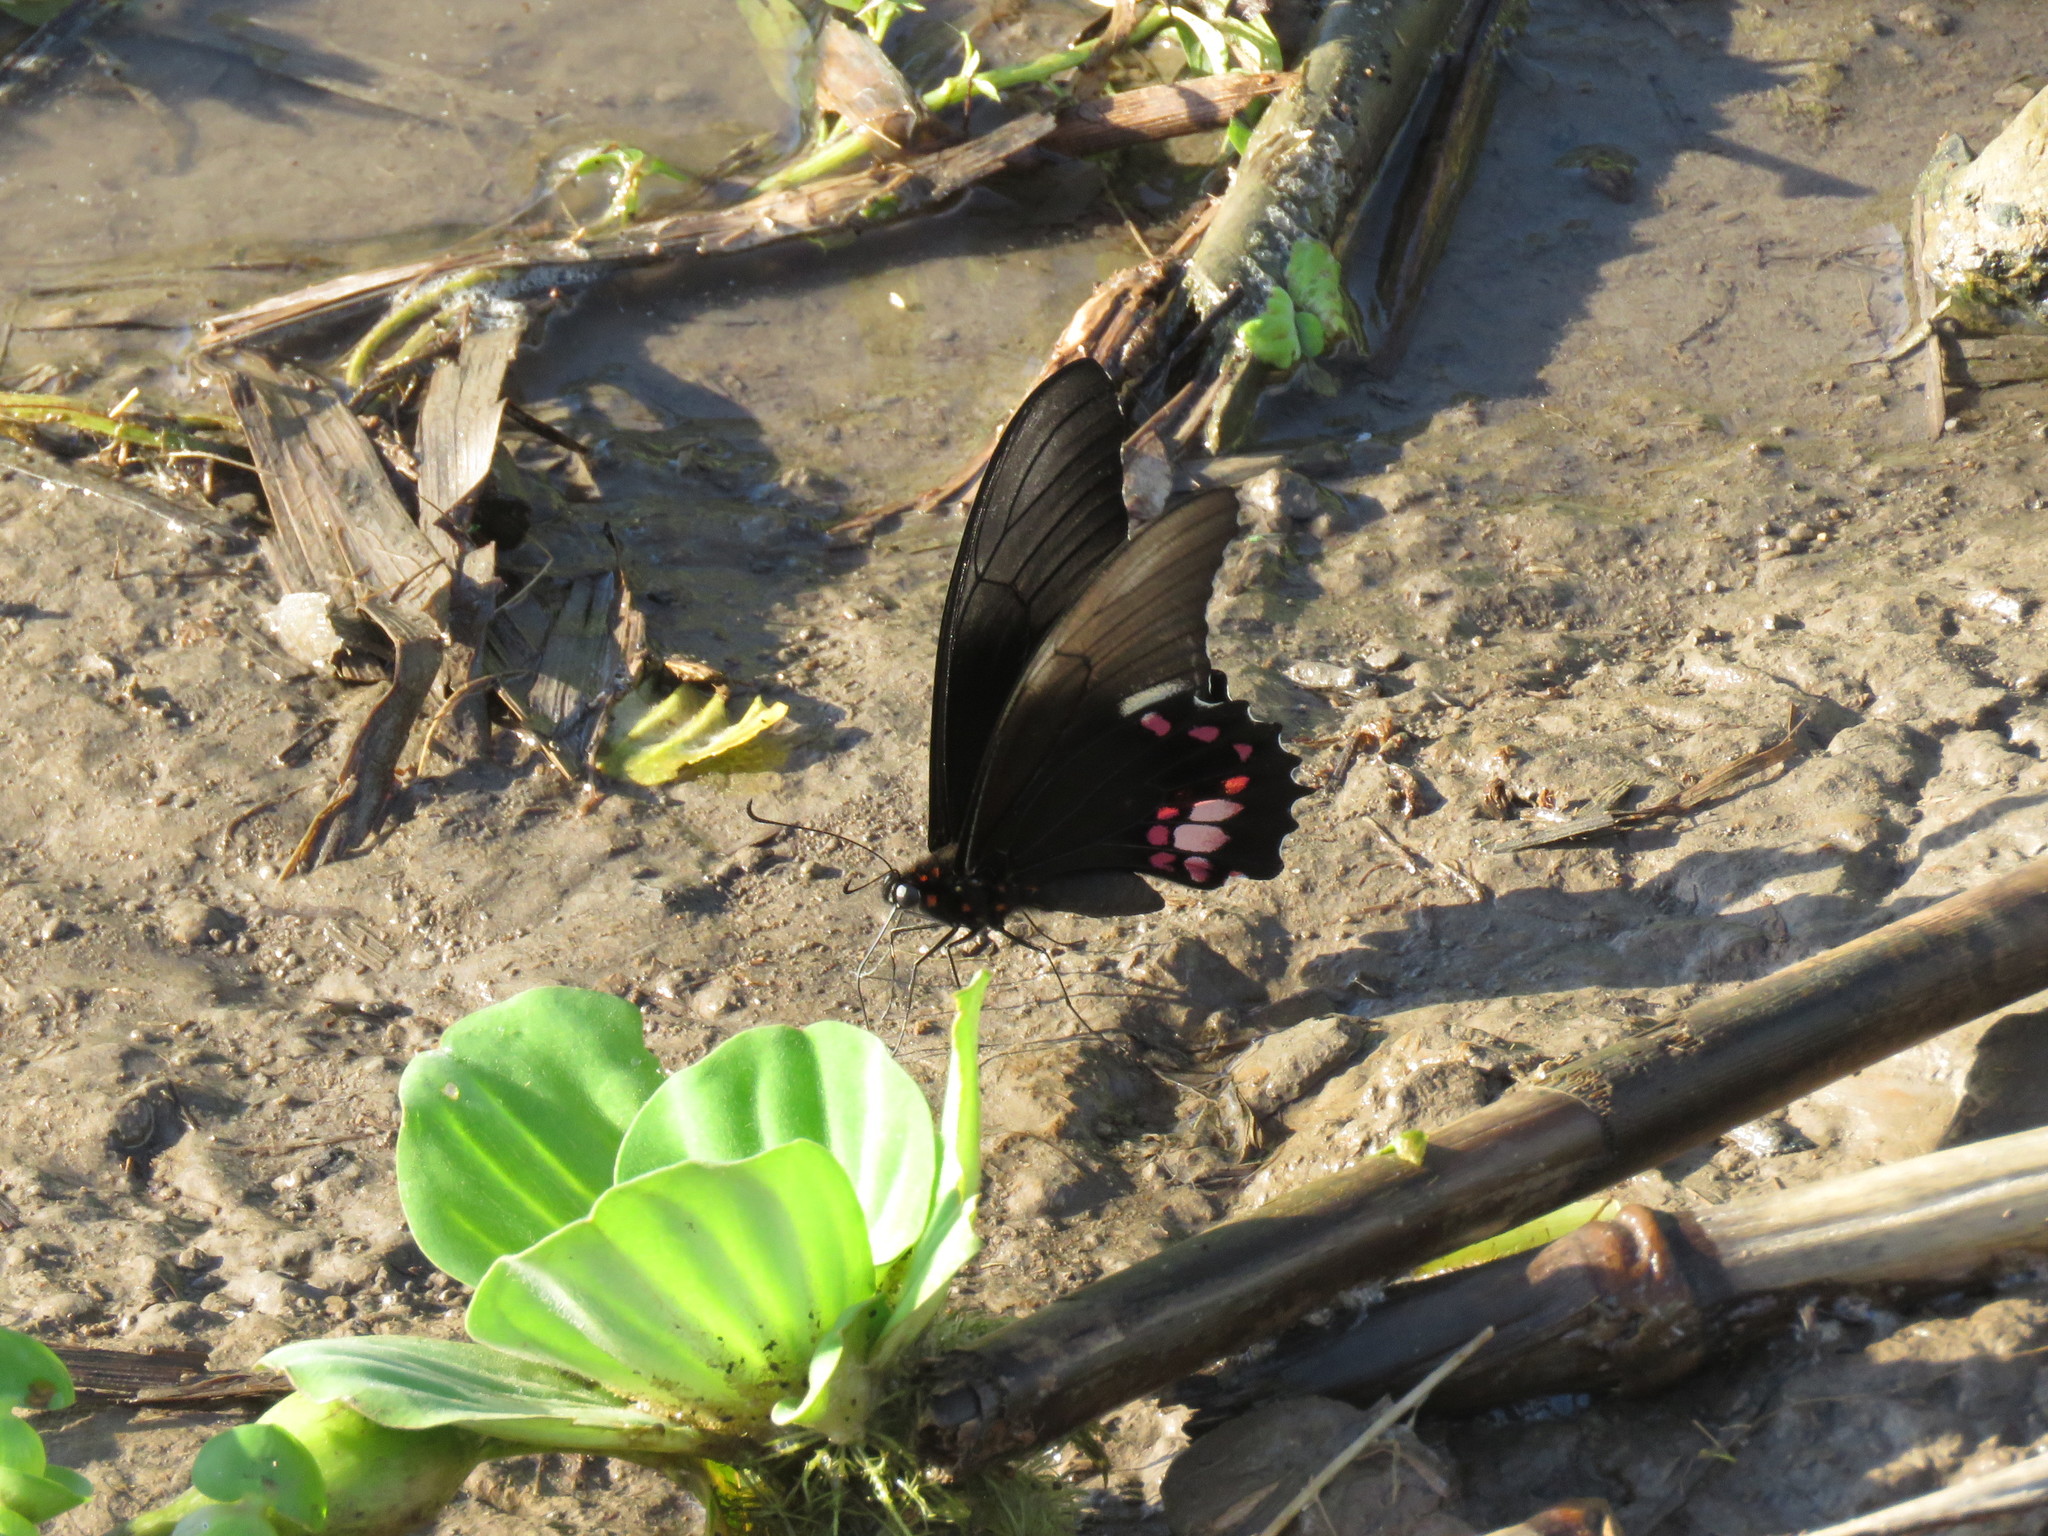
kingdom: Animalia
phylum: Arthropoda
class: Insecta
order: Lepidoptera
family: Papilionidae
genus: Papilio
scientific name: Papilio anchisiades
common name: Idaes swallowtail
